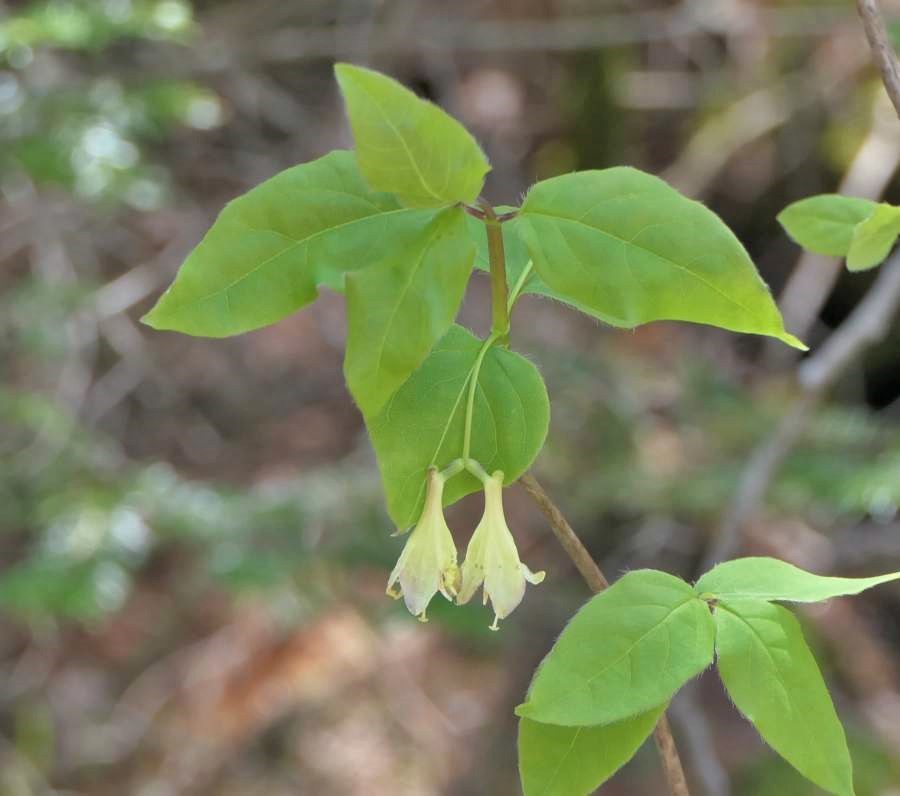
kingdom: Plantae
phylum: Tracheophyta
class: Magnoliopsida
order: Dipsacales
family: Caprifoliaceae
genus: Lonicera
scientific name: Lonicera canadensis
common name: American fly-honeysuckle
